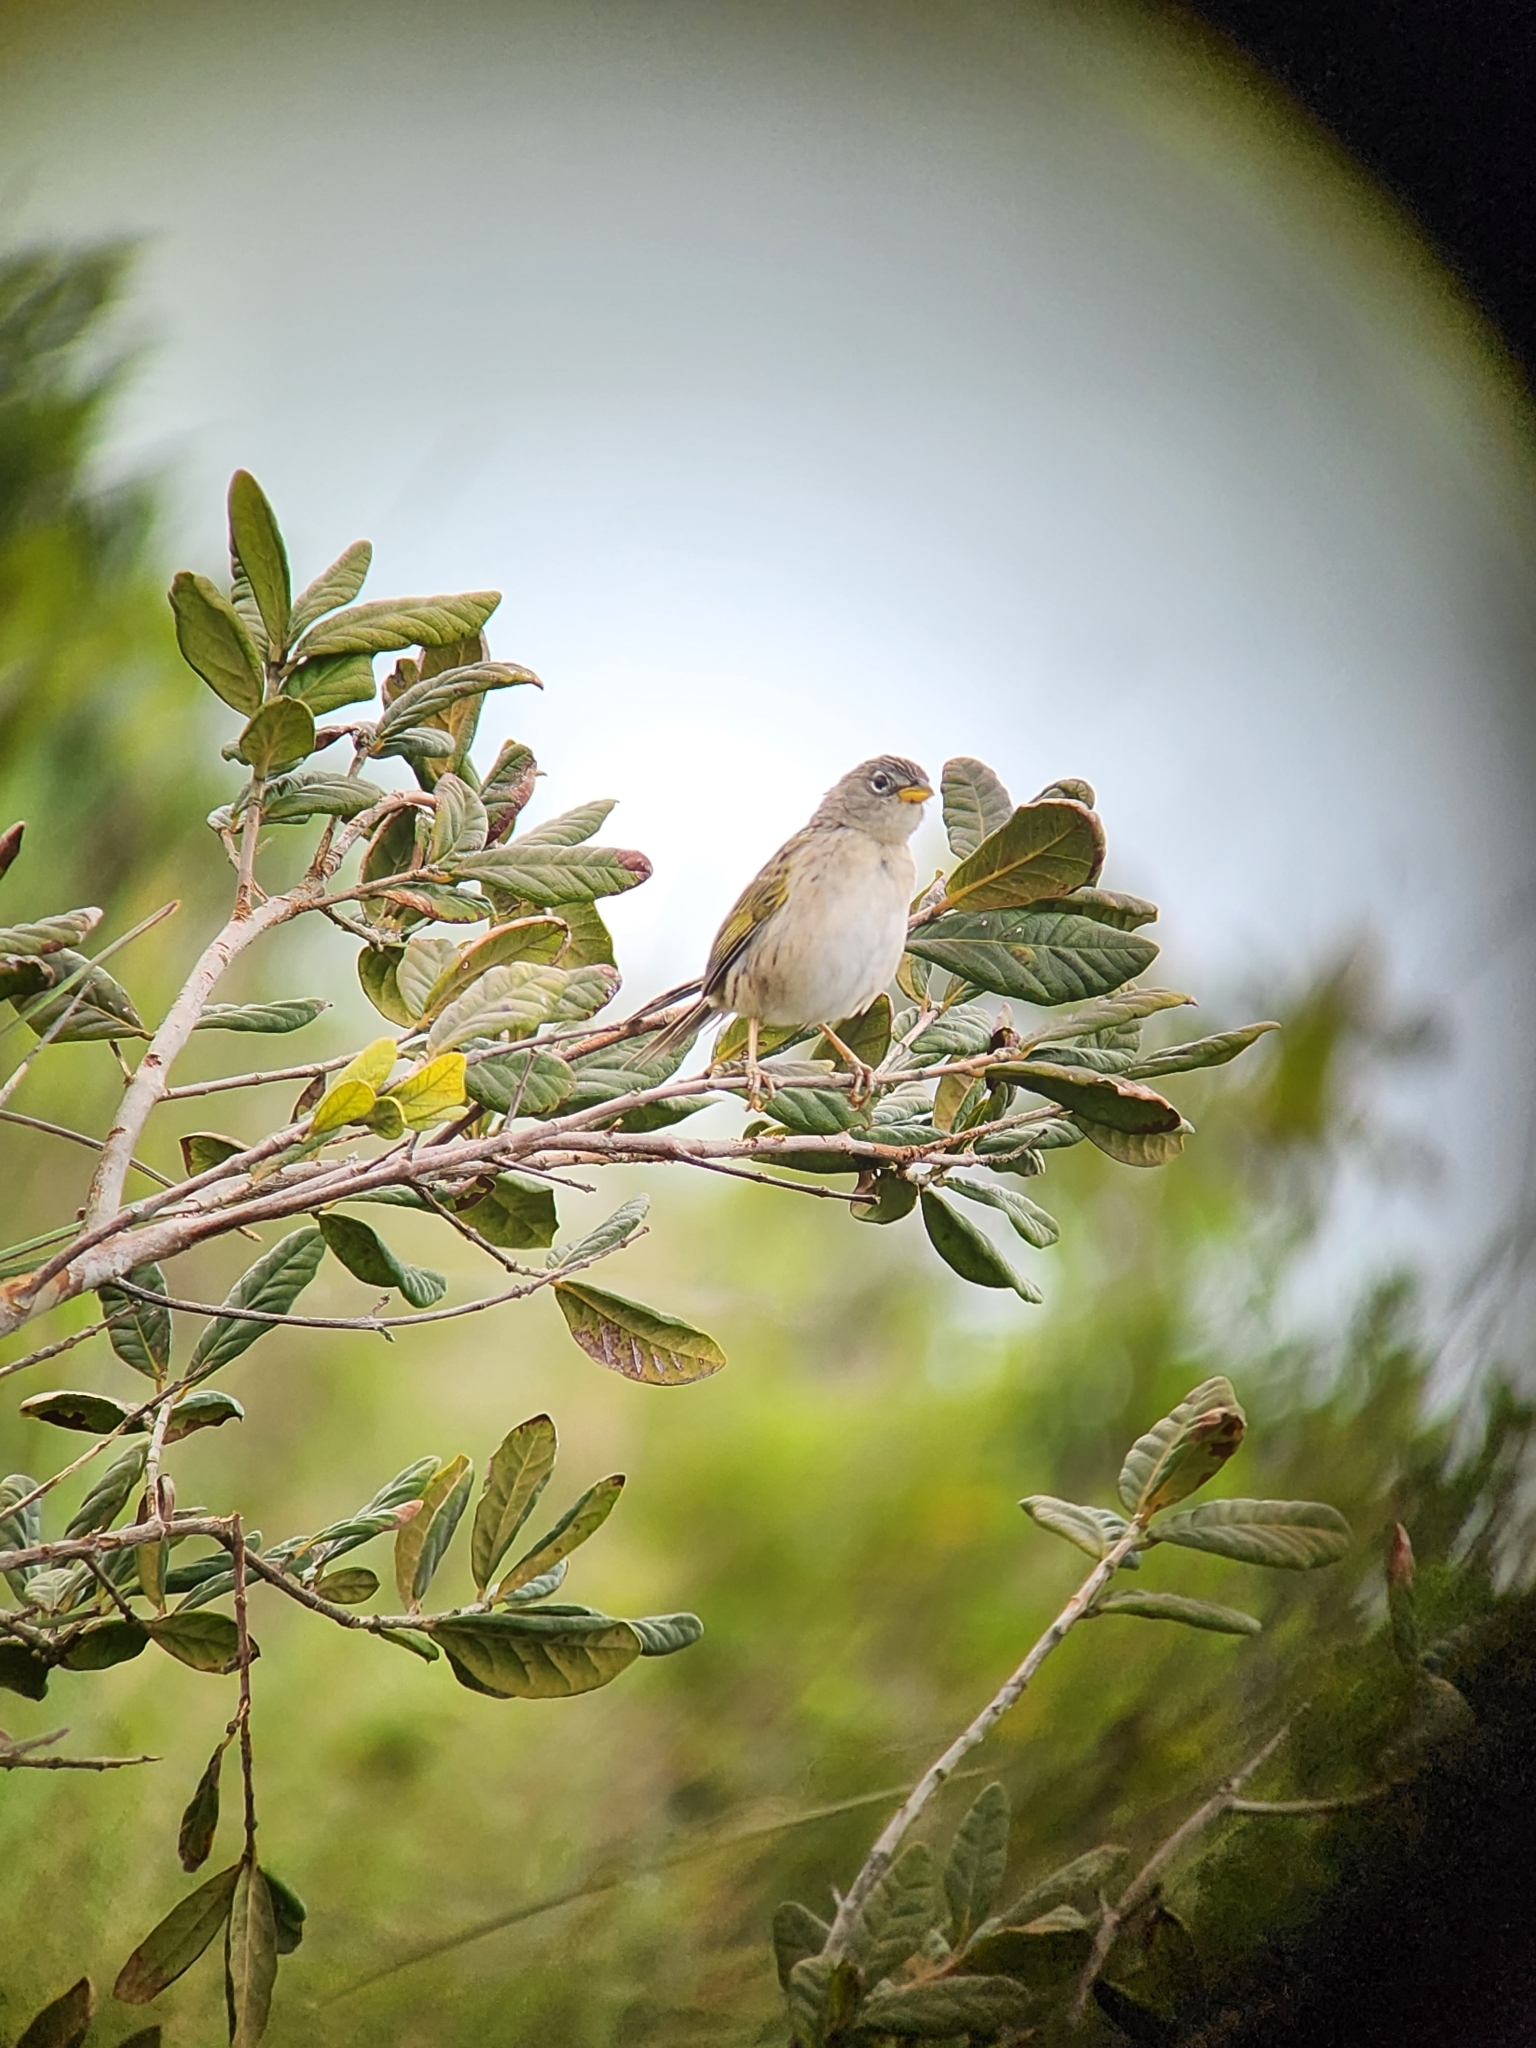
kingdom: Animalia
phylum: Chordata
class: Aves
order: Passeriformes
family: Thraupidae
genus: Emberizoides
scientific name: Emberizoides herbicola
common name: Wedge-tailed grass-finch
